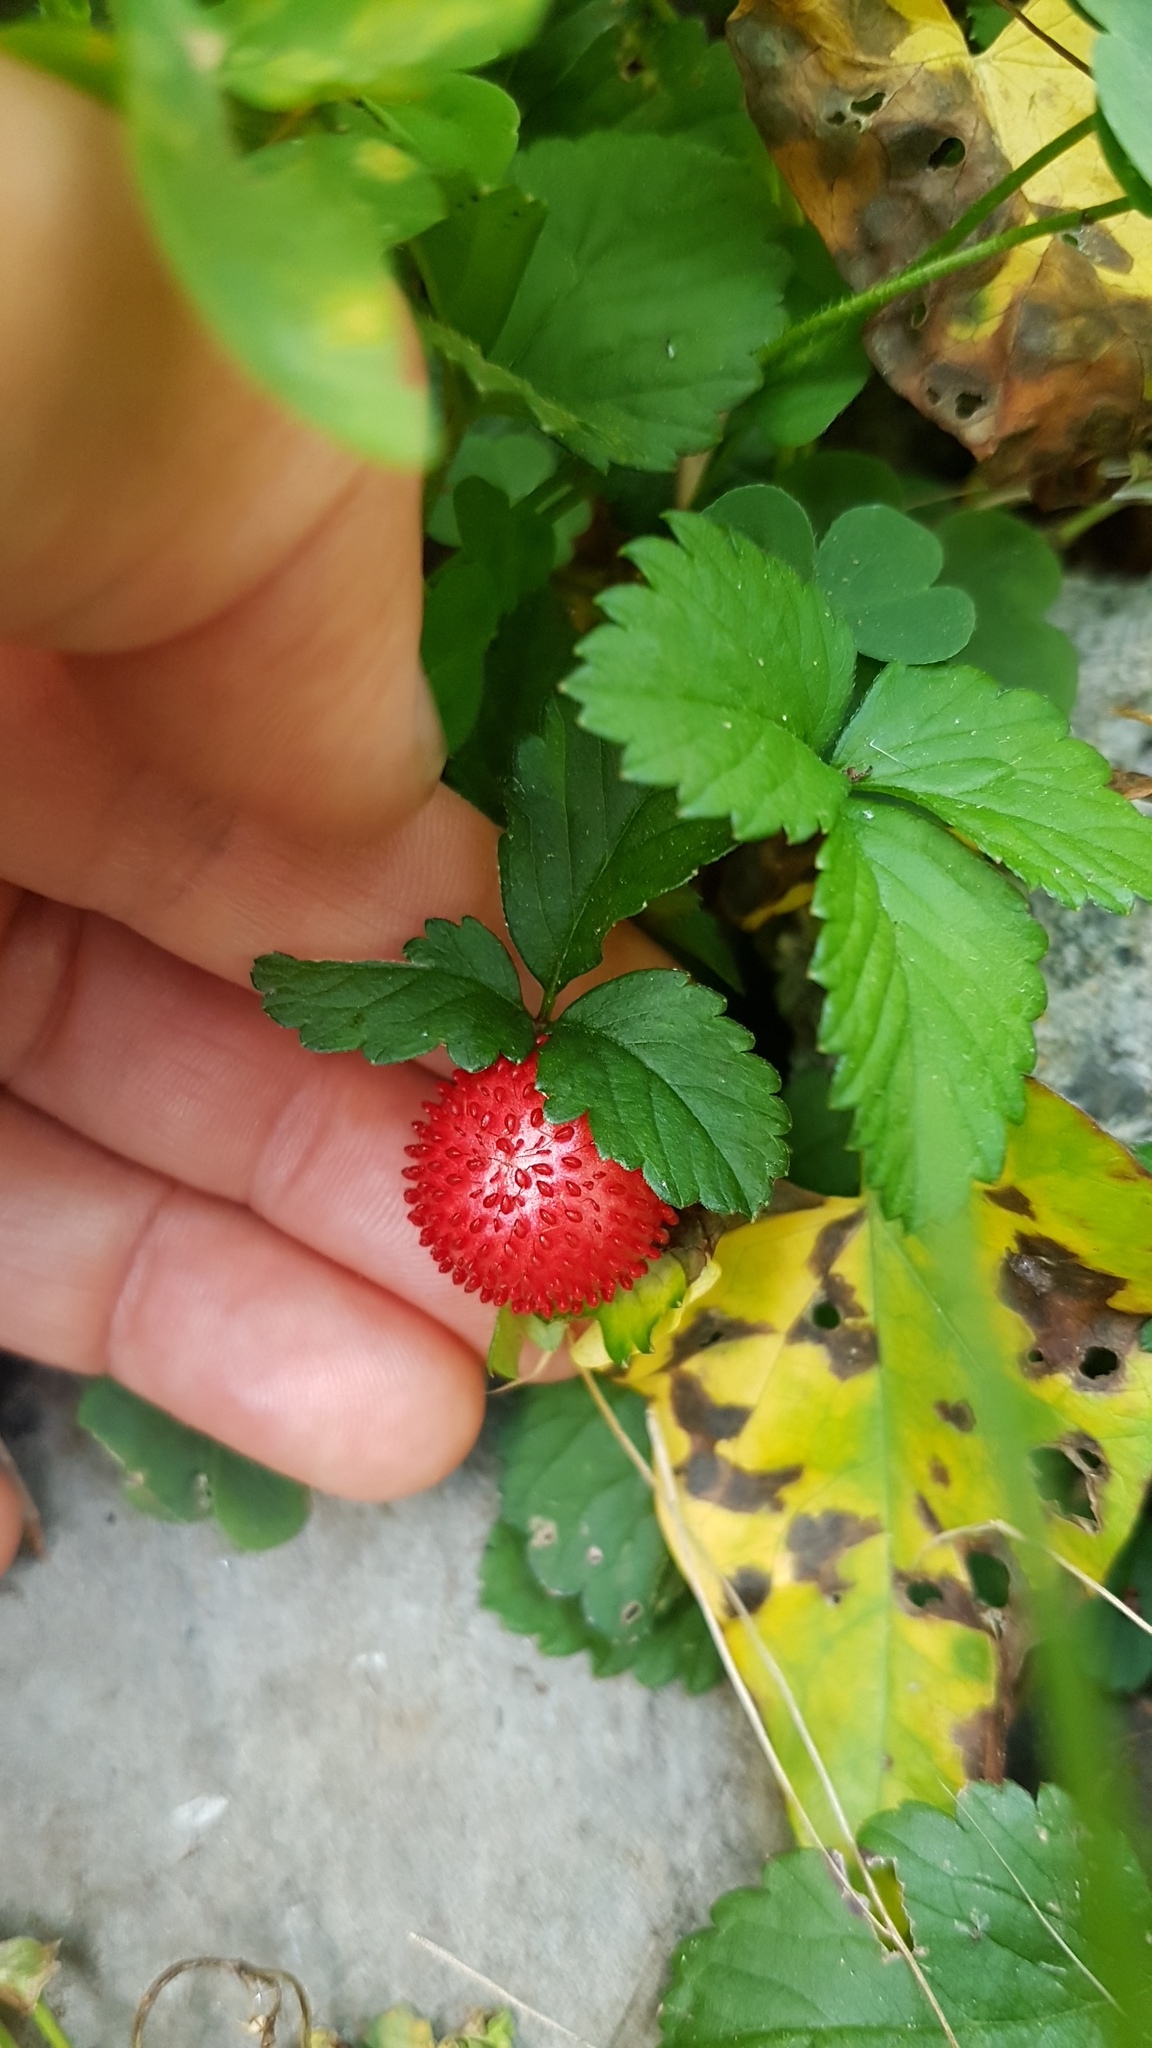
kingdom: Plantae
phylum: Tracheophyta
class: Magnoliopsida
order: Rosales
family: Rosaceae
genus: Potentilla
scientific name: Potentilla indica
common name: Yellow-flowered strawberry
